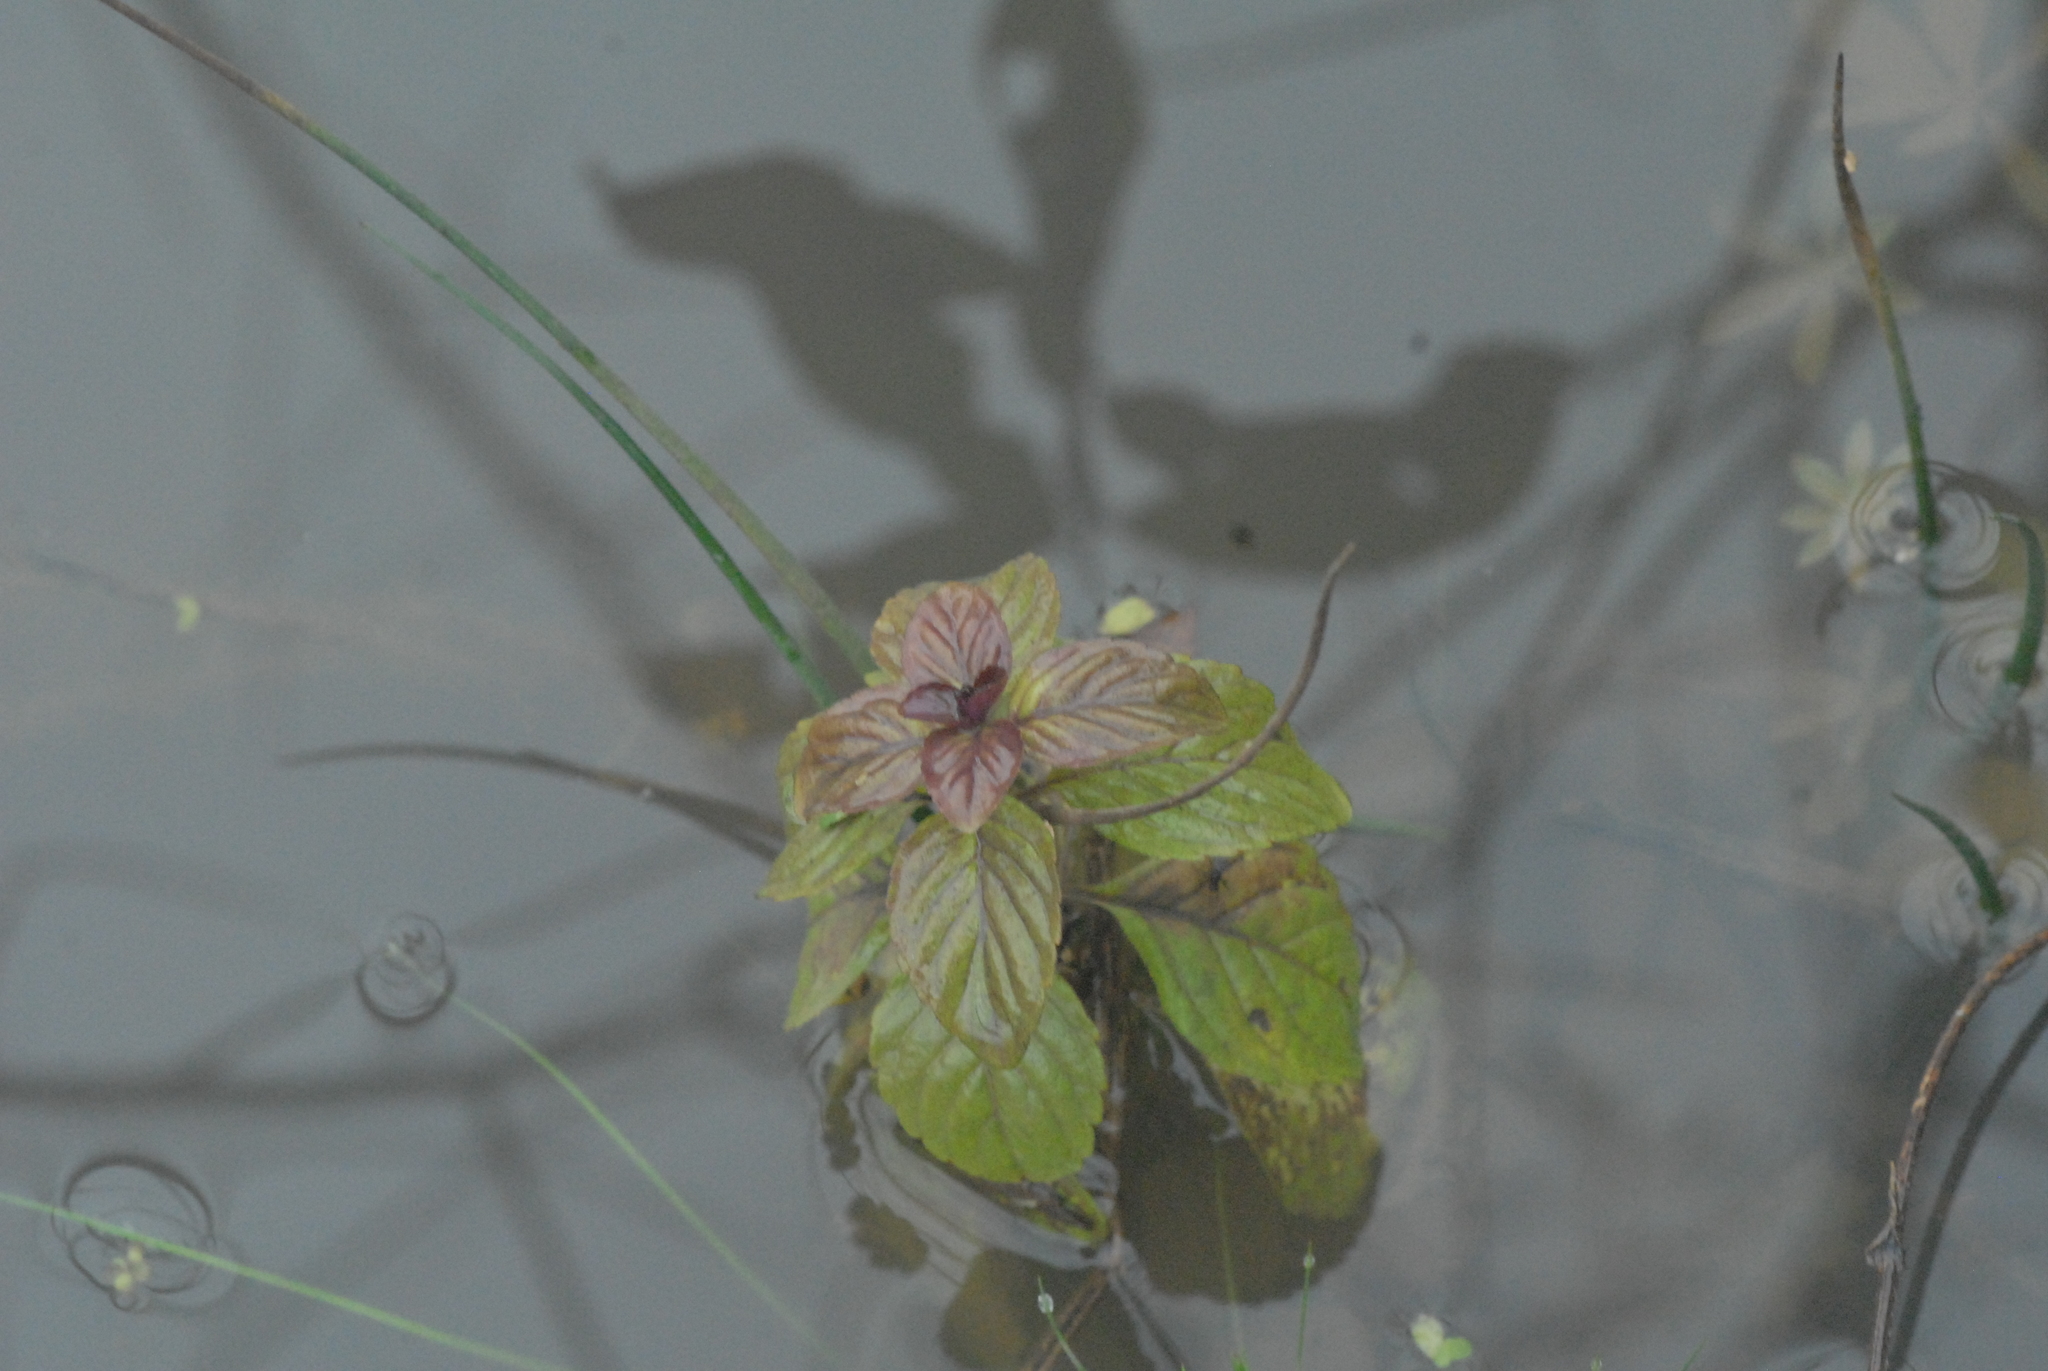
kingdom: Plantae
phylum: Tracheophyta
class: Magnoliopsida
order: Lamiales
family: Lamiaceae
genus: Mentha
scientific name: Mentha arvensis
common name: Corn mint
